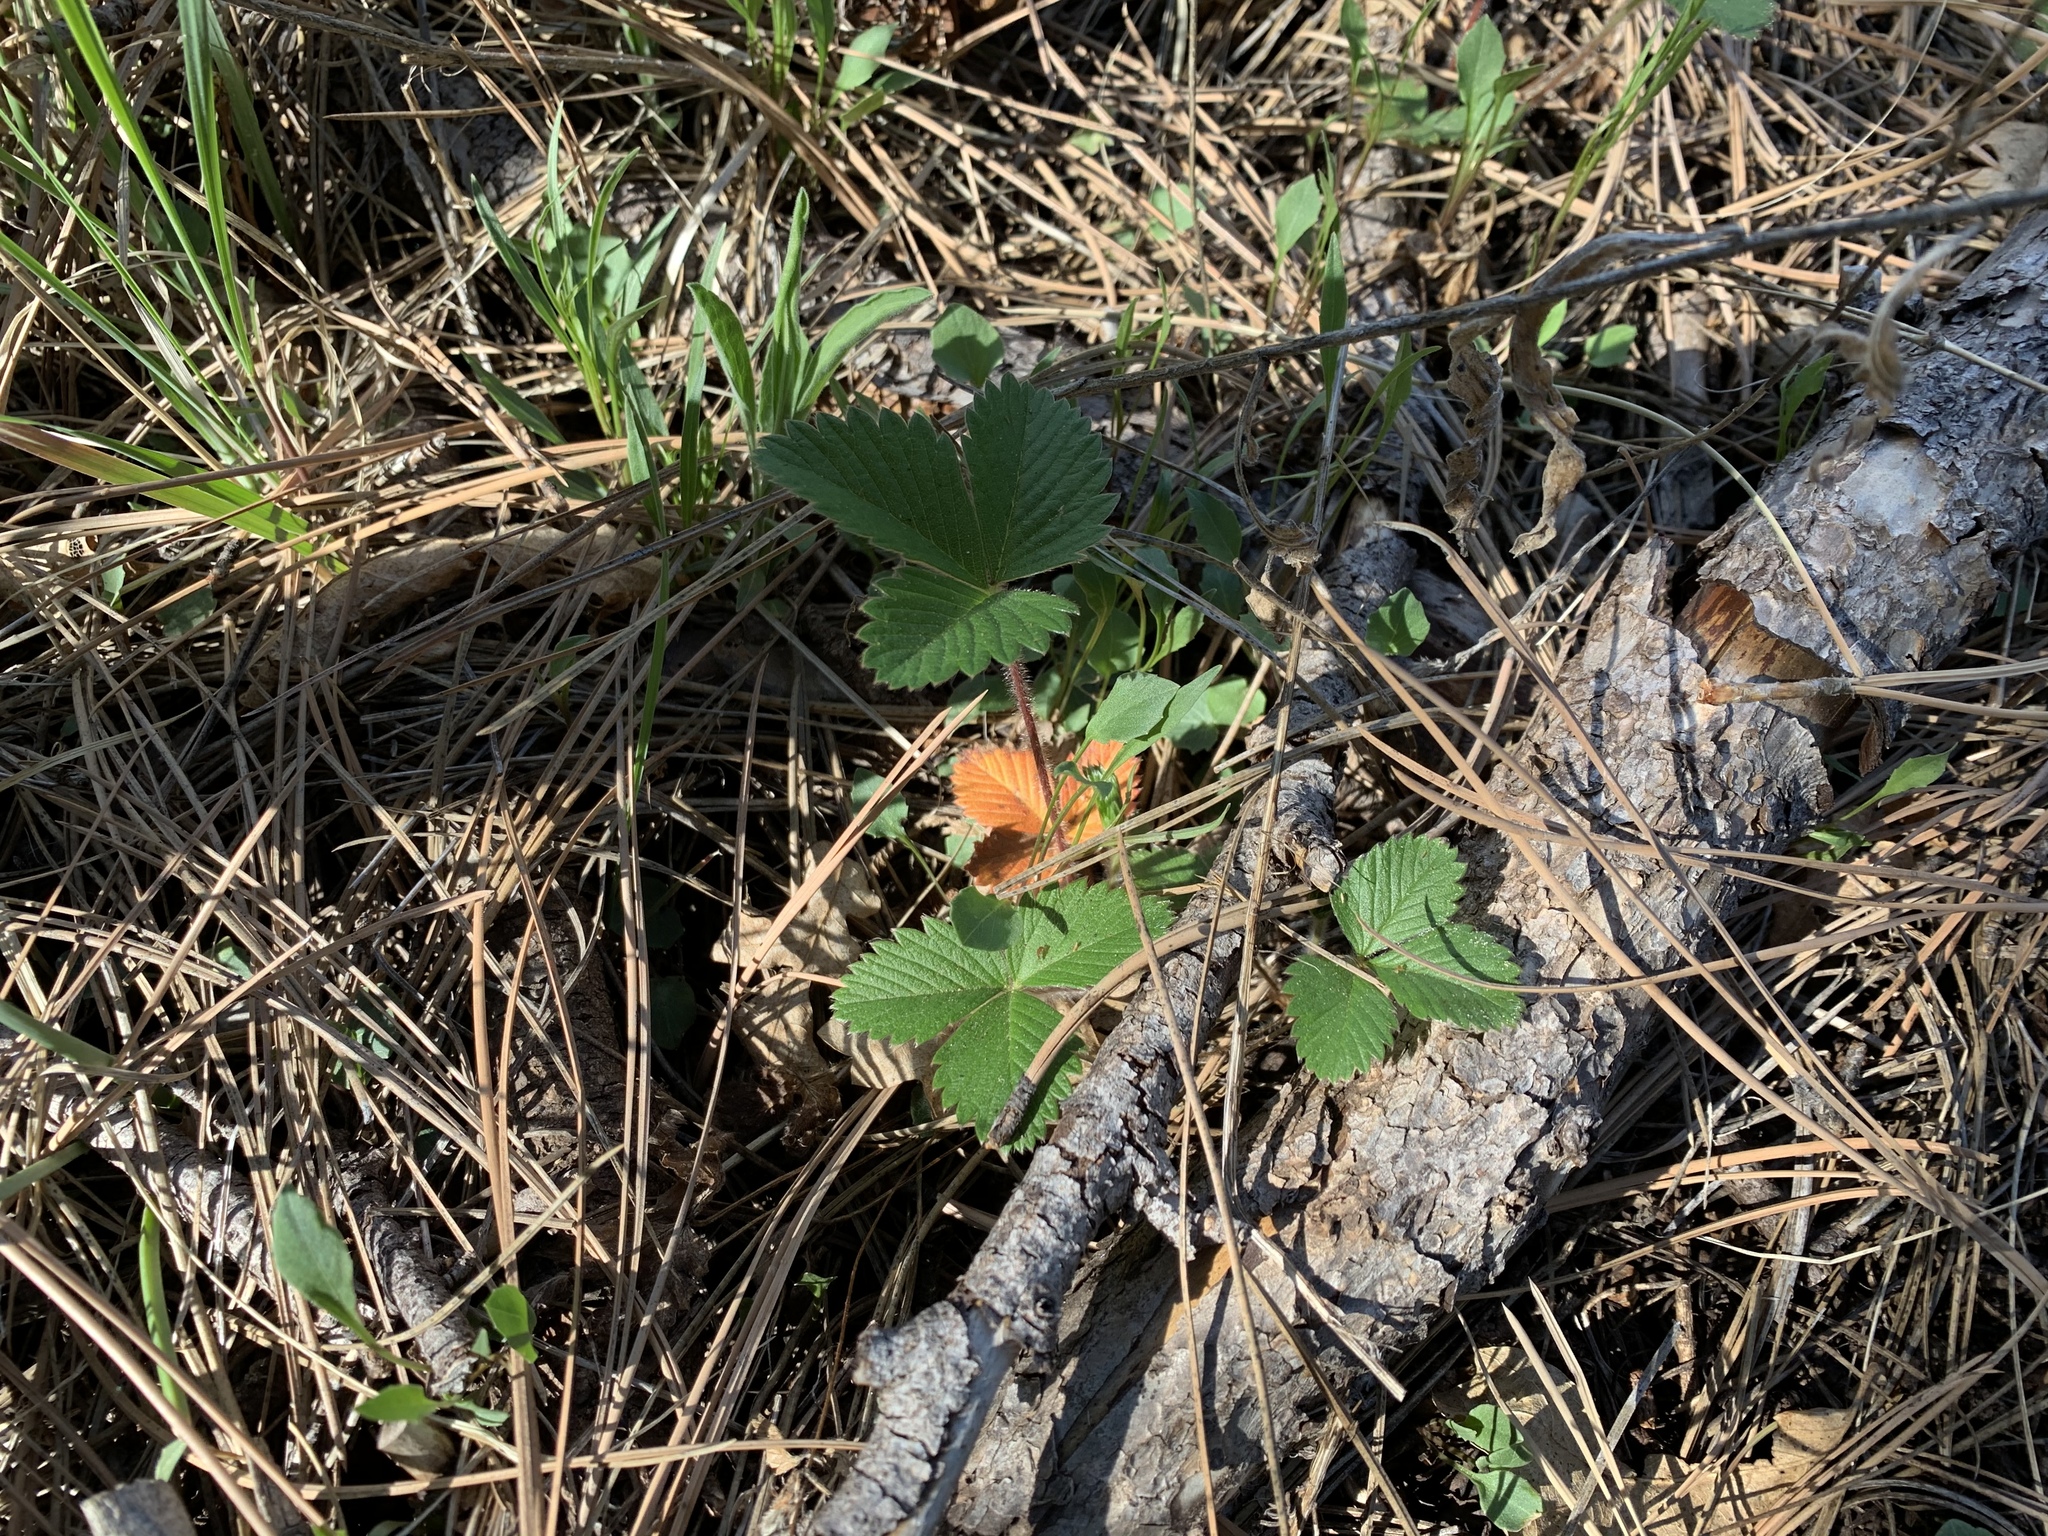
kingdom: Plantae
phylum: Tracheophyta
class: Magnoliopsida
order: Rosales
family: Rosaceae
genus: Fragaria
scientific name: Fragaria vesca
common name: Wild strawberry
